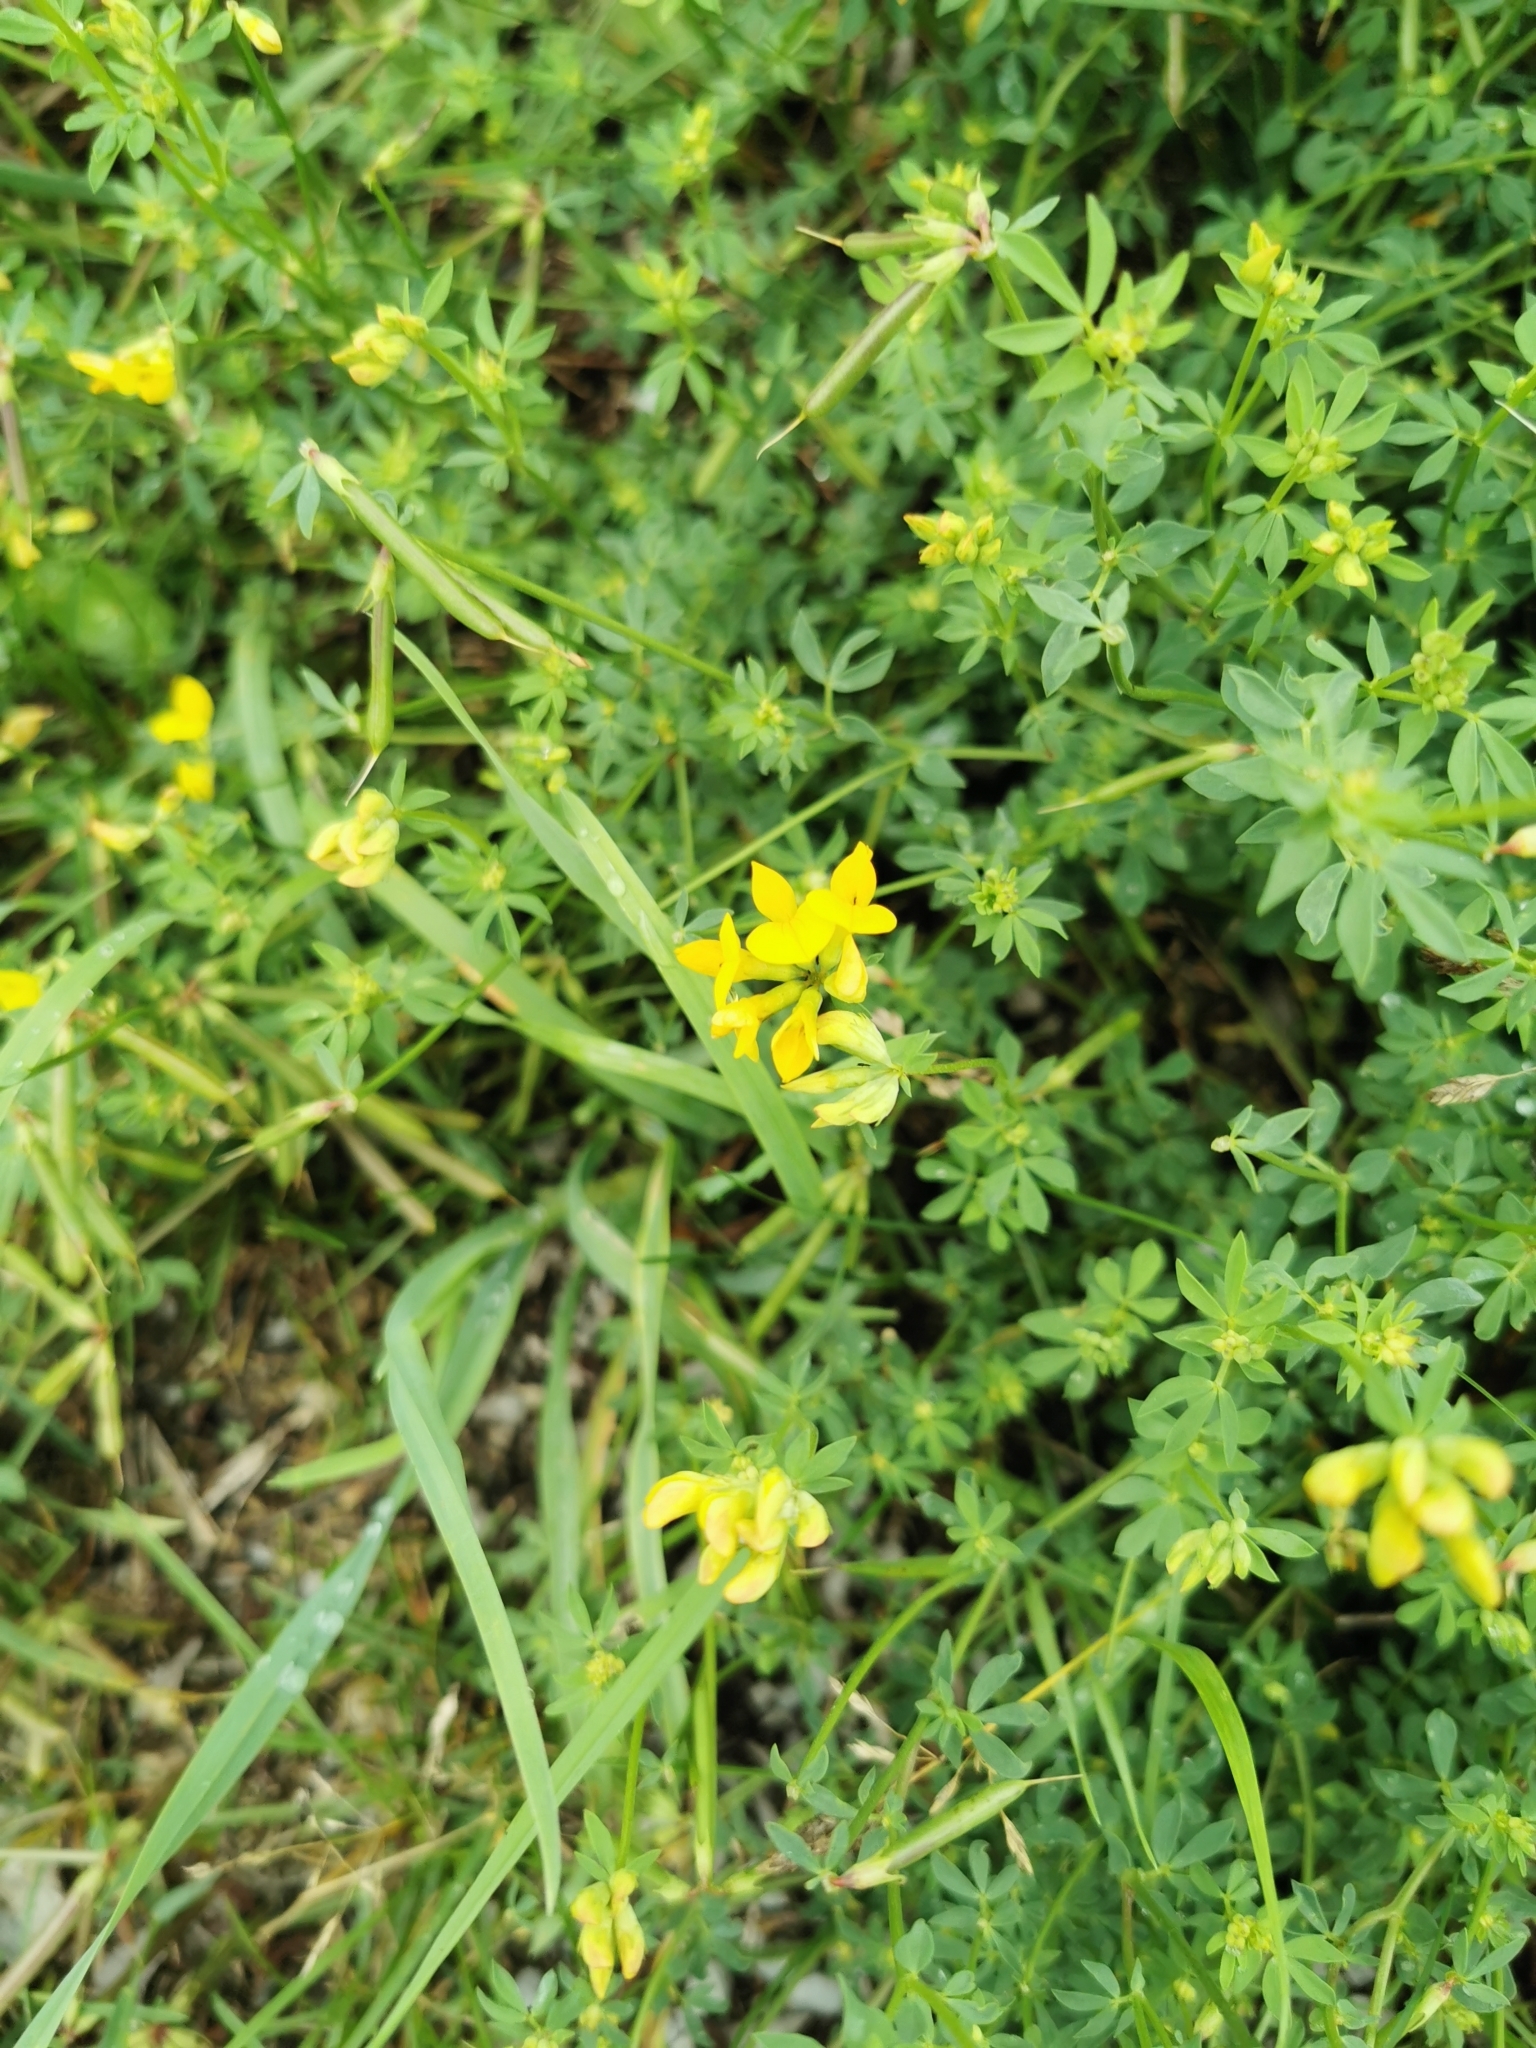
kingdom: Plantae
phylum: Tracheophyta
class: Magnoliopsida
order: Fabales
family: Fabaceae
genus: Lotus
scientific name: Lotus corniculatus
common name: Common bird's-foot-trefoil
